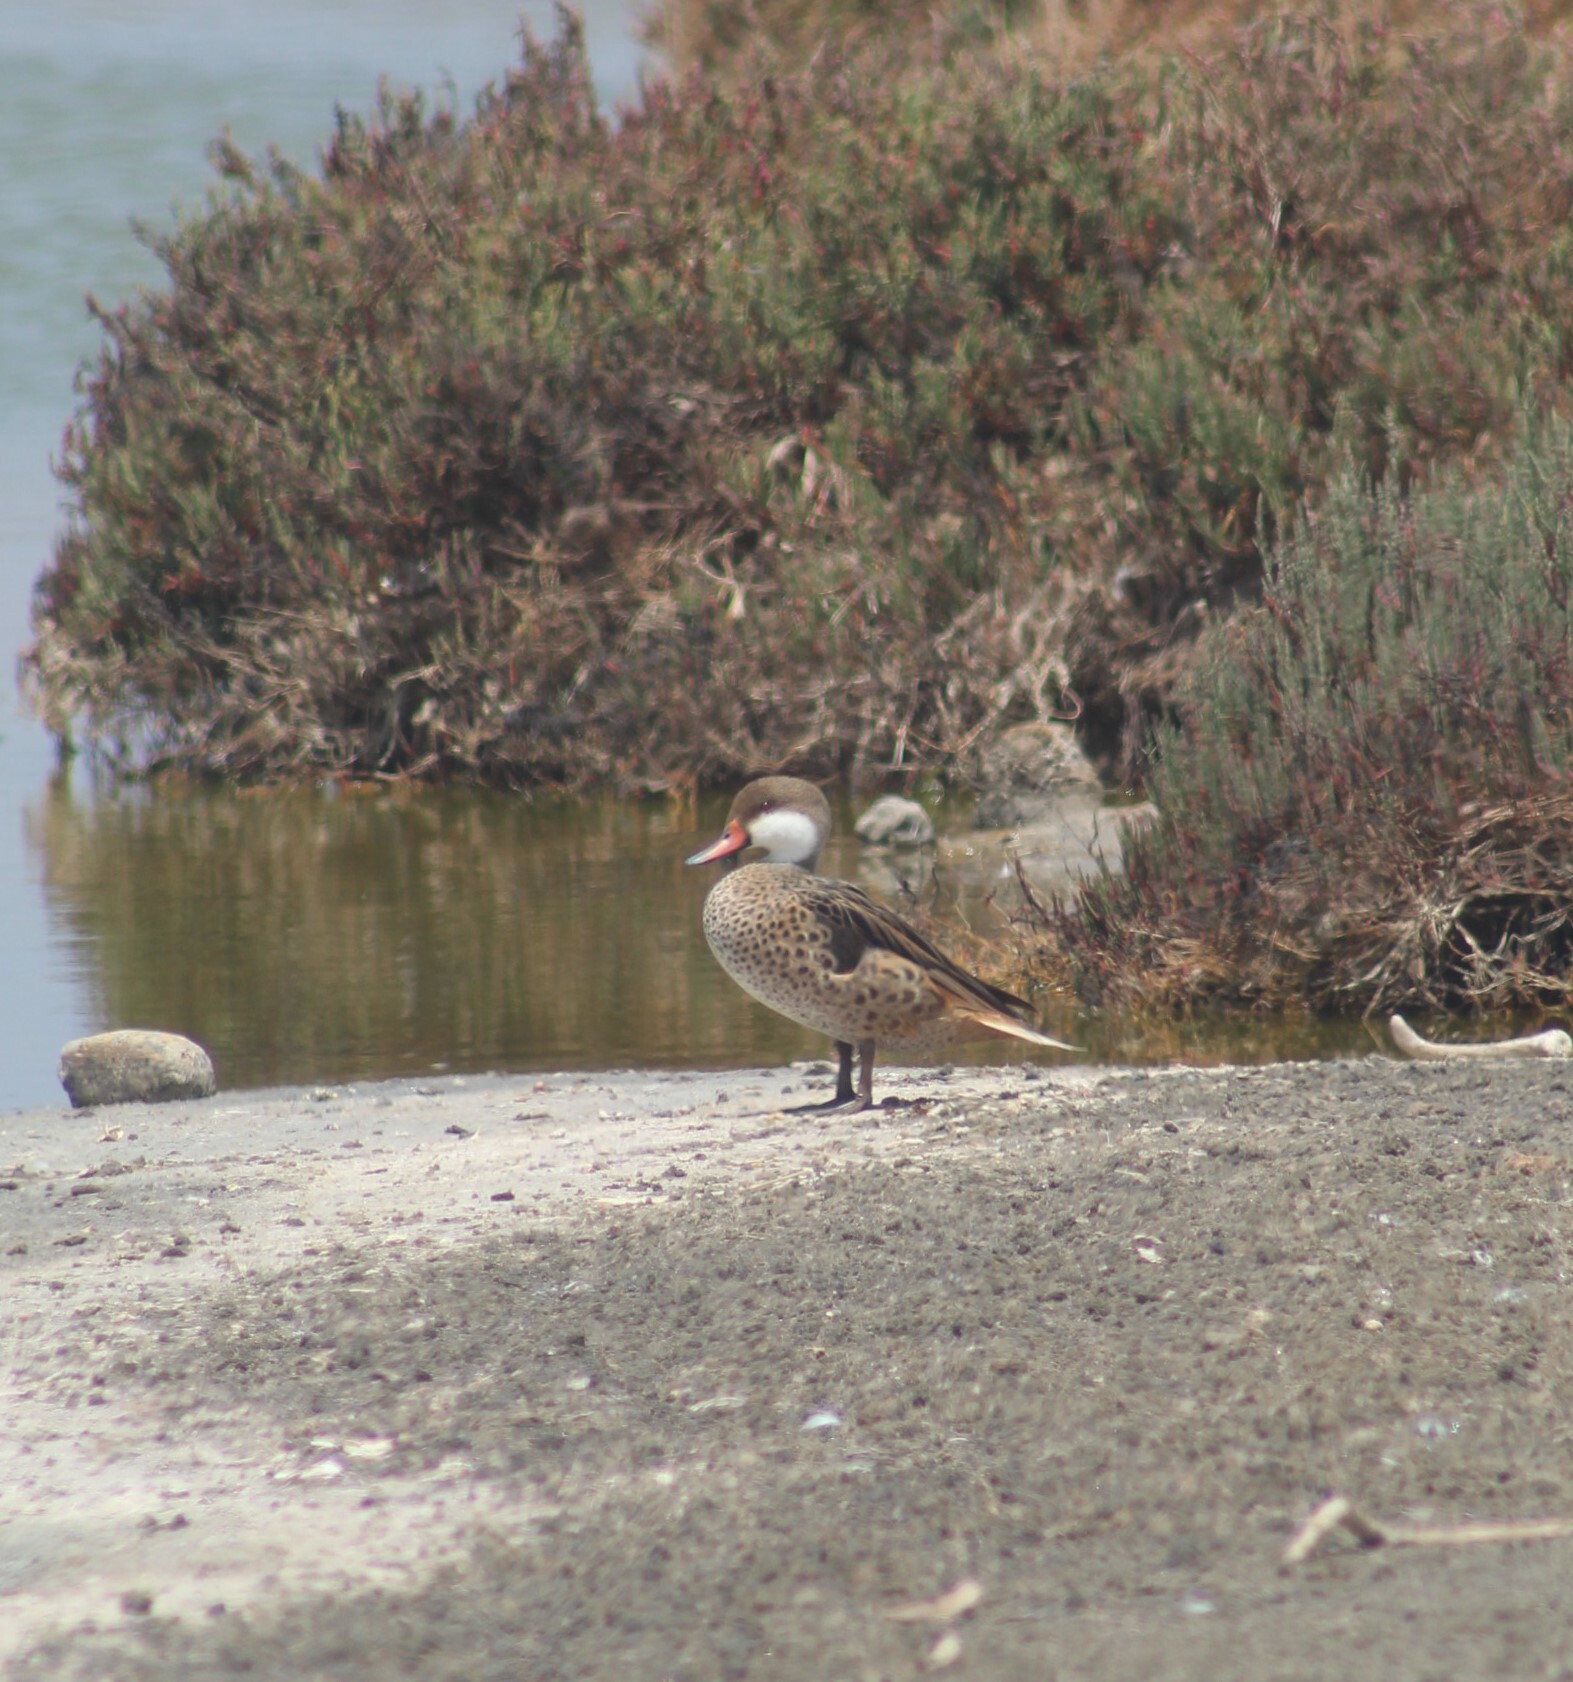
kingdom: Animalia
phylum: Chordata
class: Aves
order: Anseriformes
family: Anatidae
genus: Anas
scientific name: Anas bahamensis
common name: White-cheeked pintail
